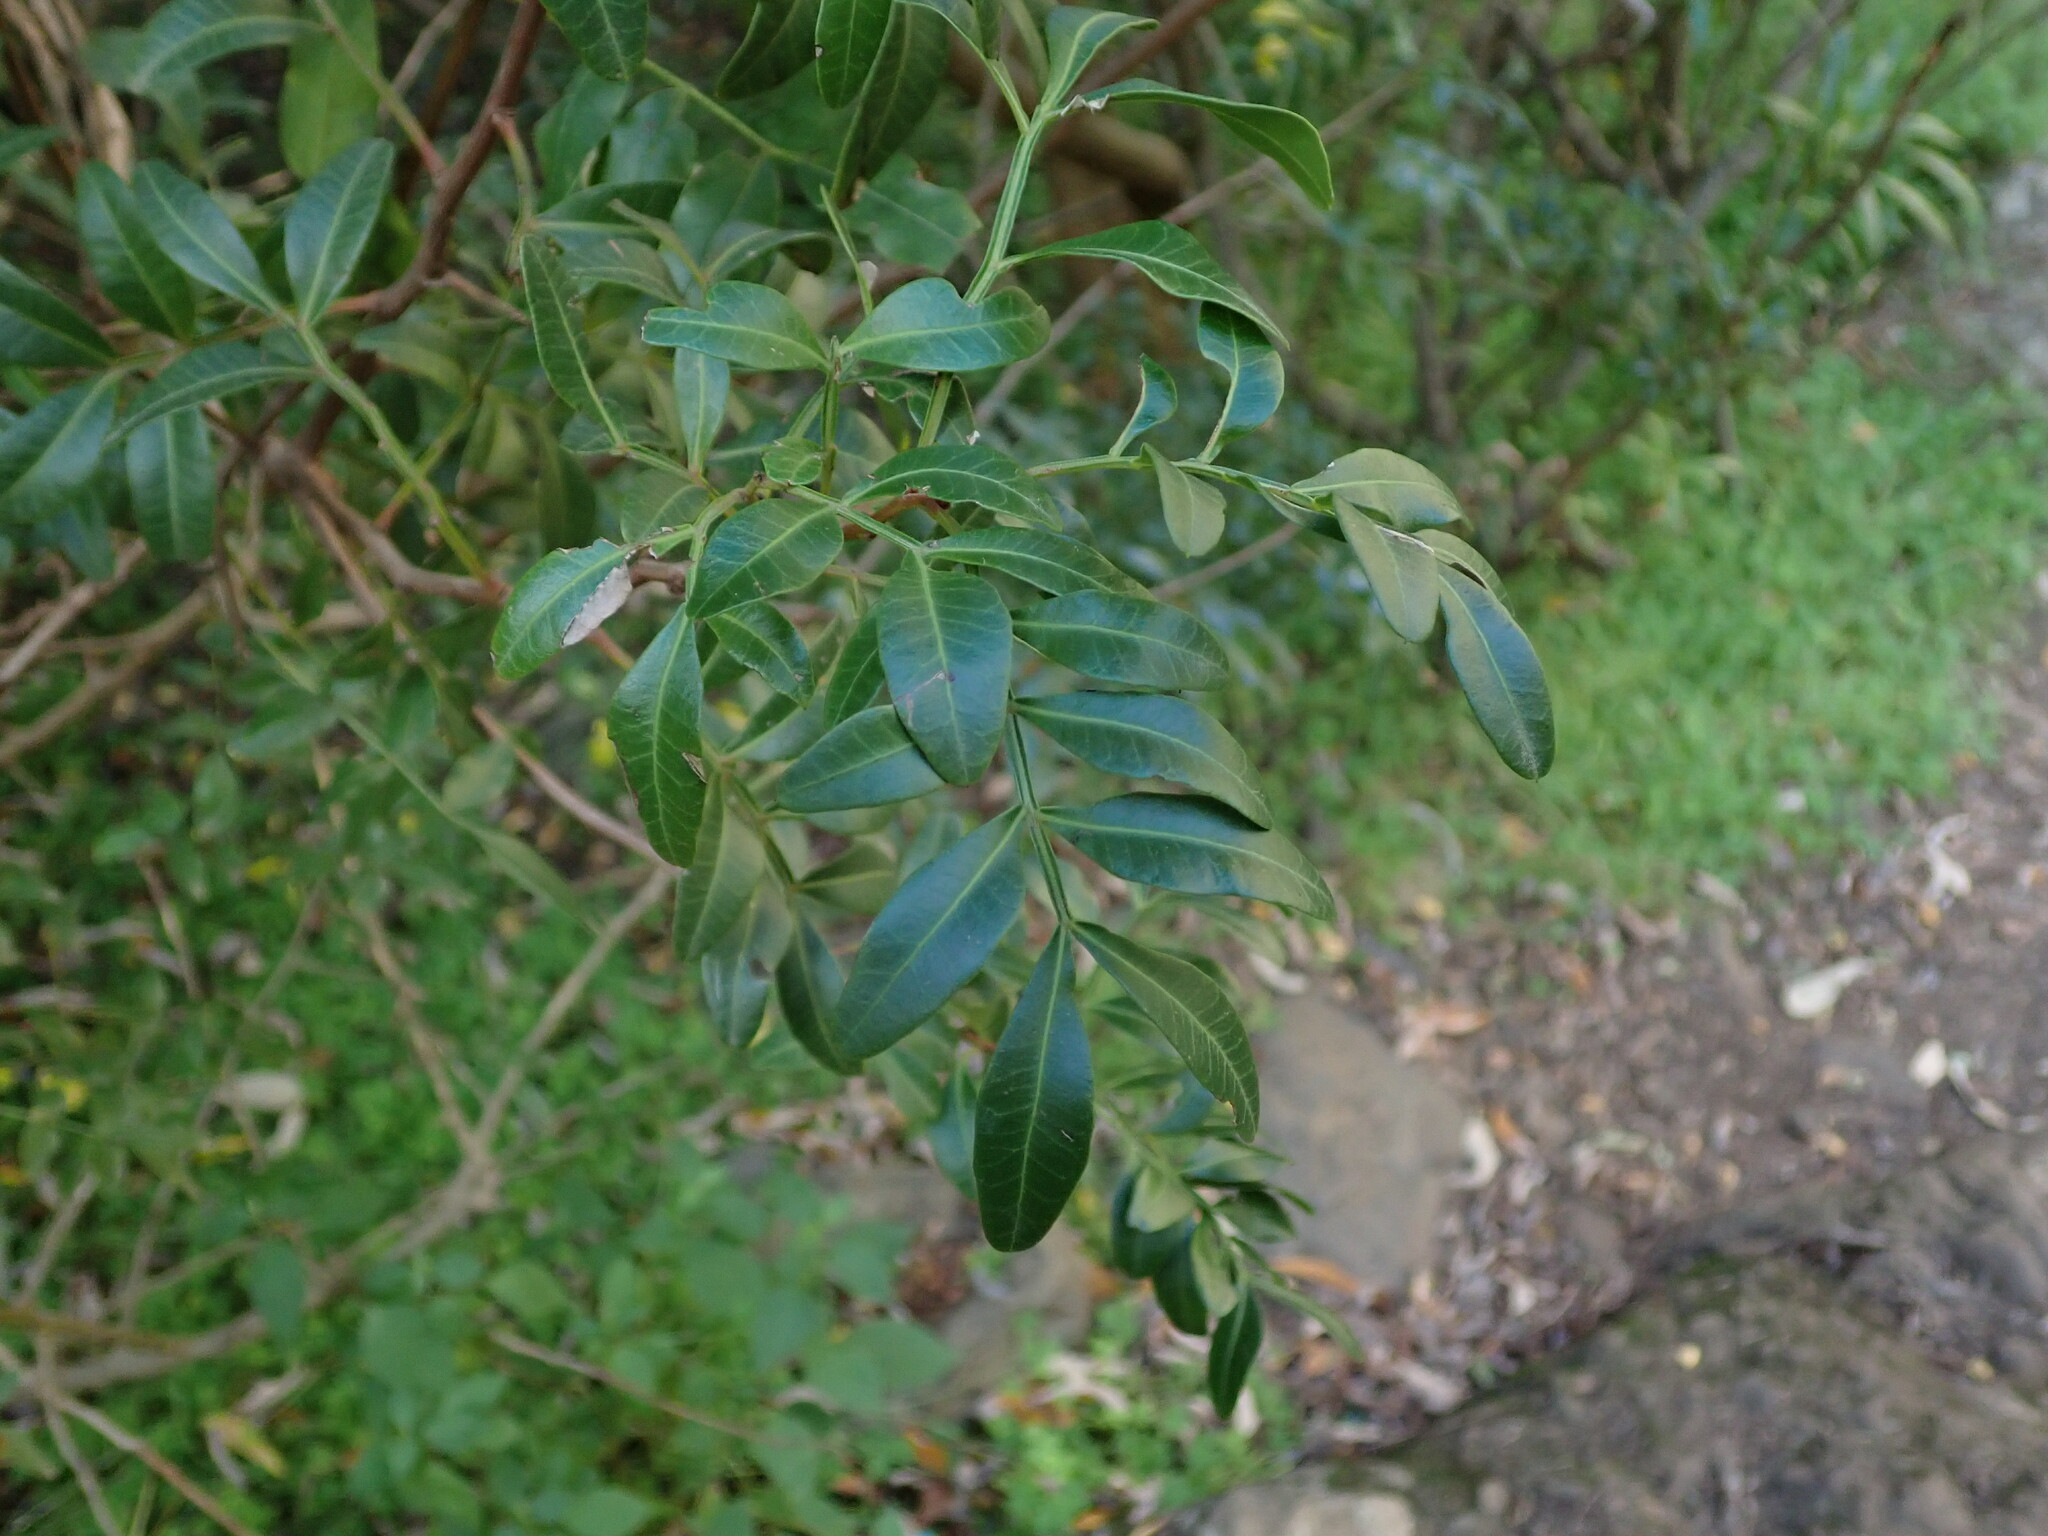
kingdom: Plantae
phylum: Tracheophyta
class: Magnoliopsida
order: Sapindales
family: Anacardiaceae
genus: Pistacia
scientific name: Pistacia lentiscus
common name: Lentisk
